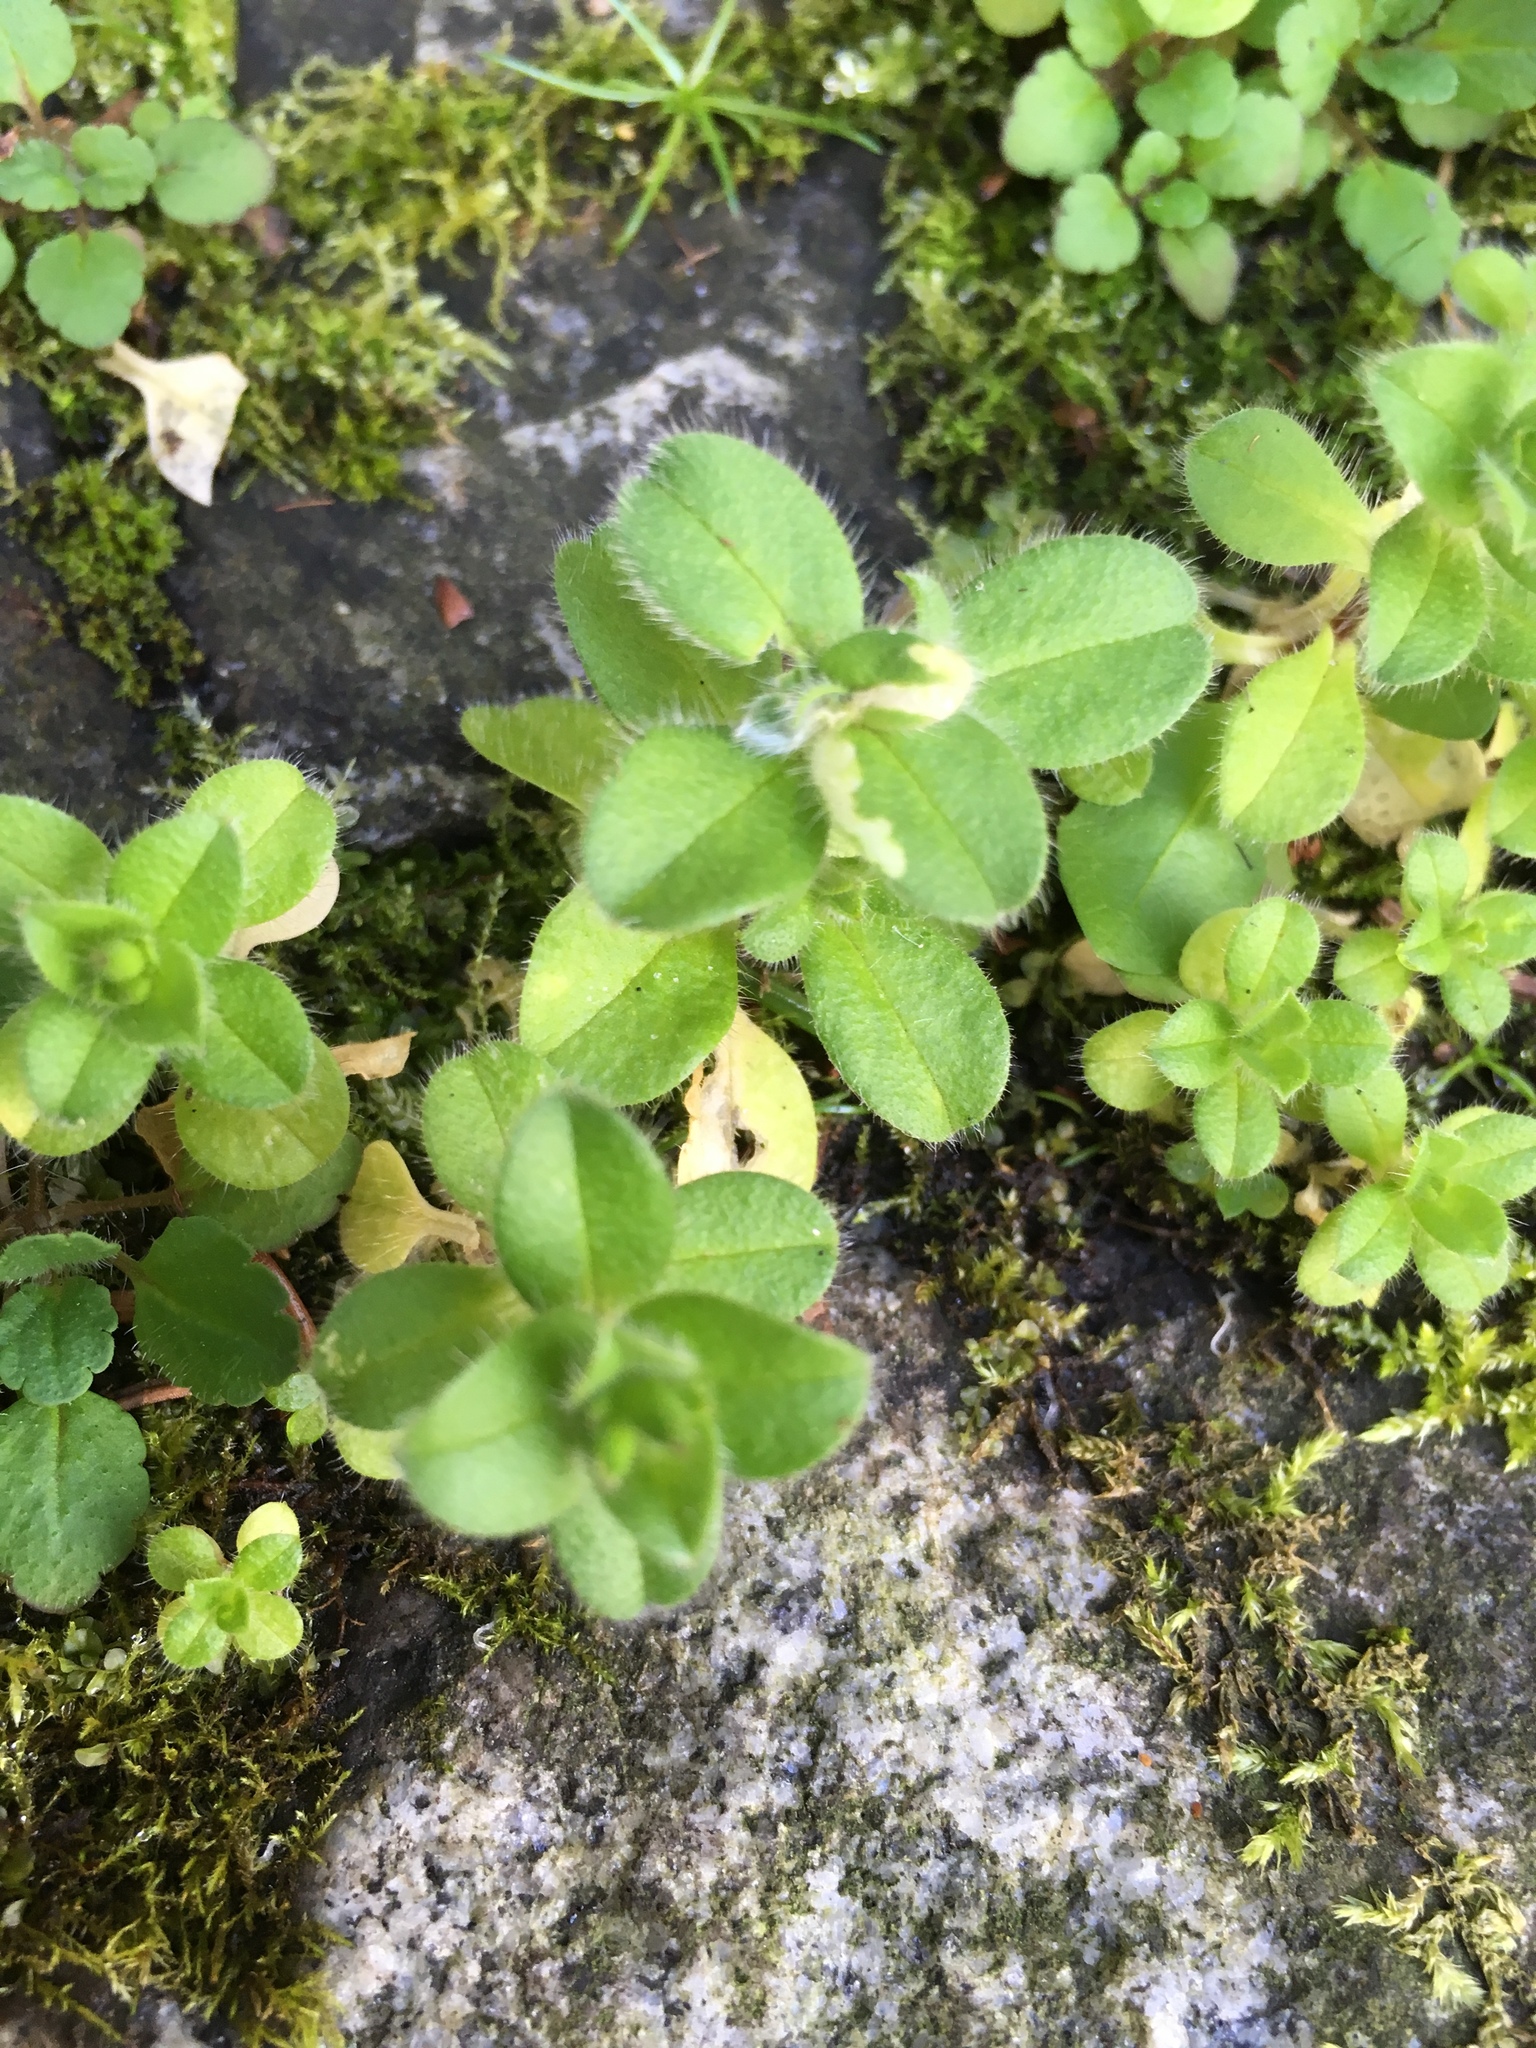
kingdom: Plantae
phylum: Tracheophyta
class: Magnoliopsida
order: Caryophyllales
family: Caryophyllaceae
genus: Cerastium
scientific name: Cerastium glomeratum
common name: Sticky chickweed
